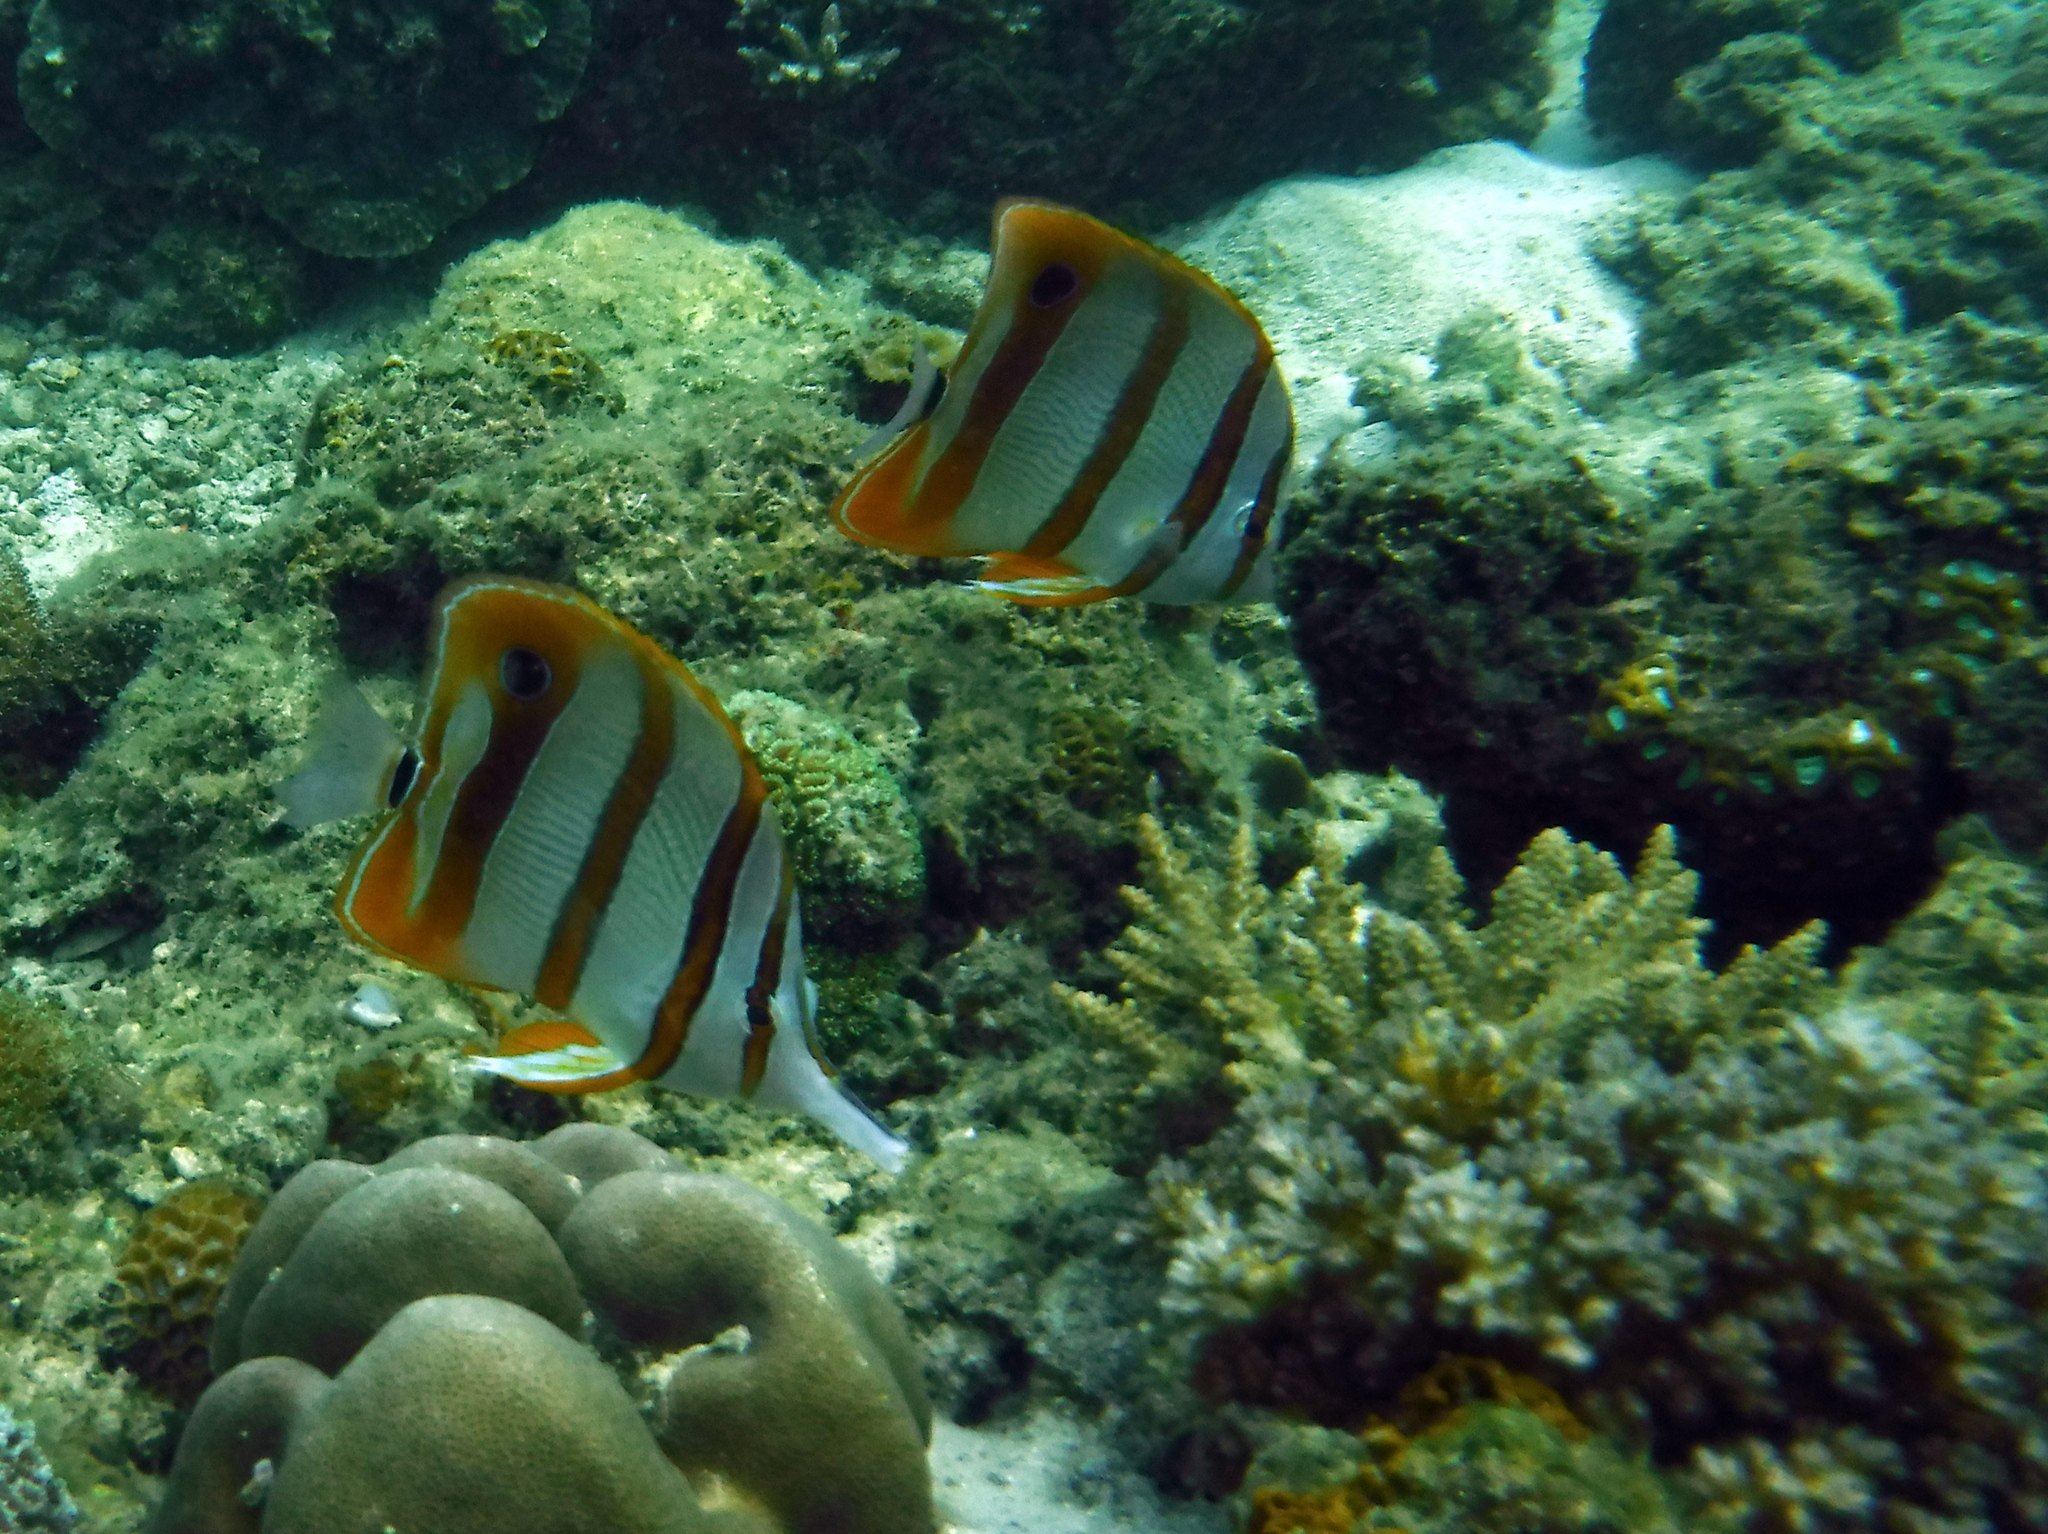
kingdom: Animalia
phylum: Chordata
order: Perciformes
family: Chaetodontidae
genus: Chelmon
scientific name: Chelmon rostratus
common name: Beaked butterflyfish
